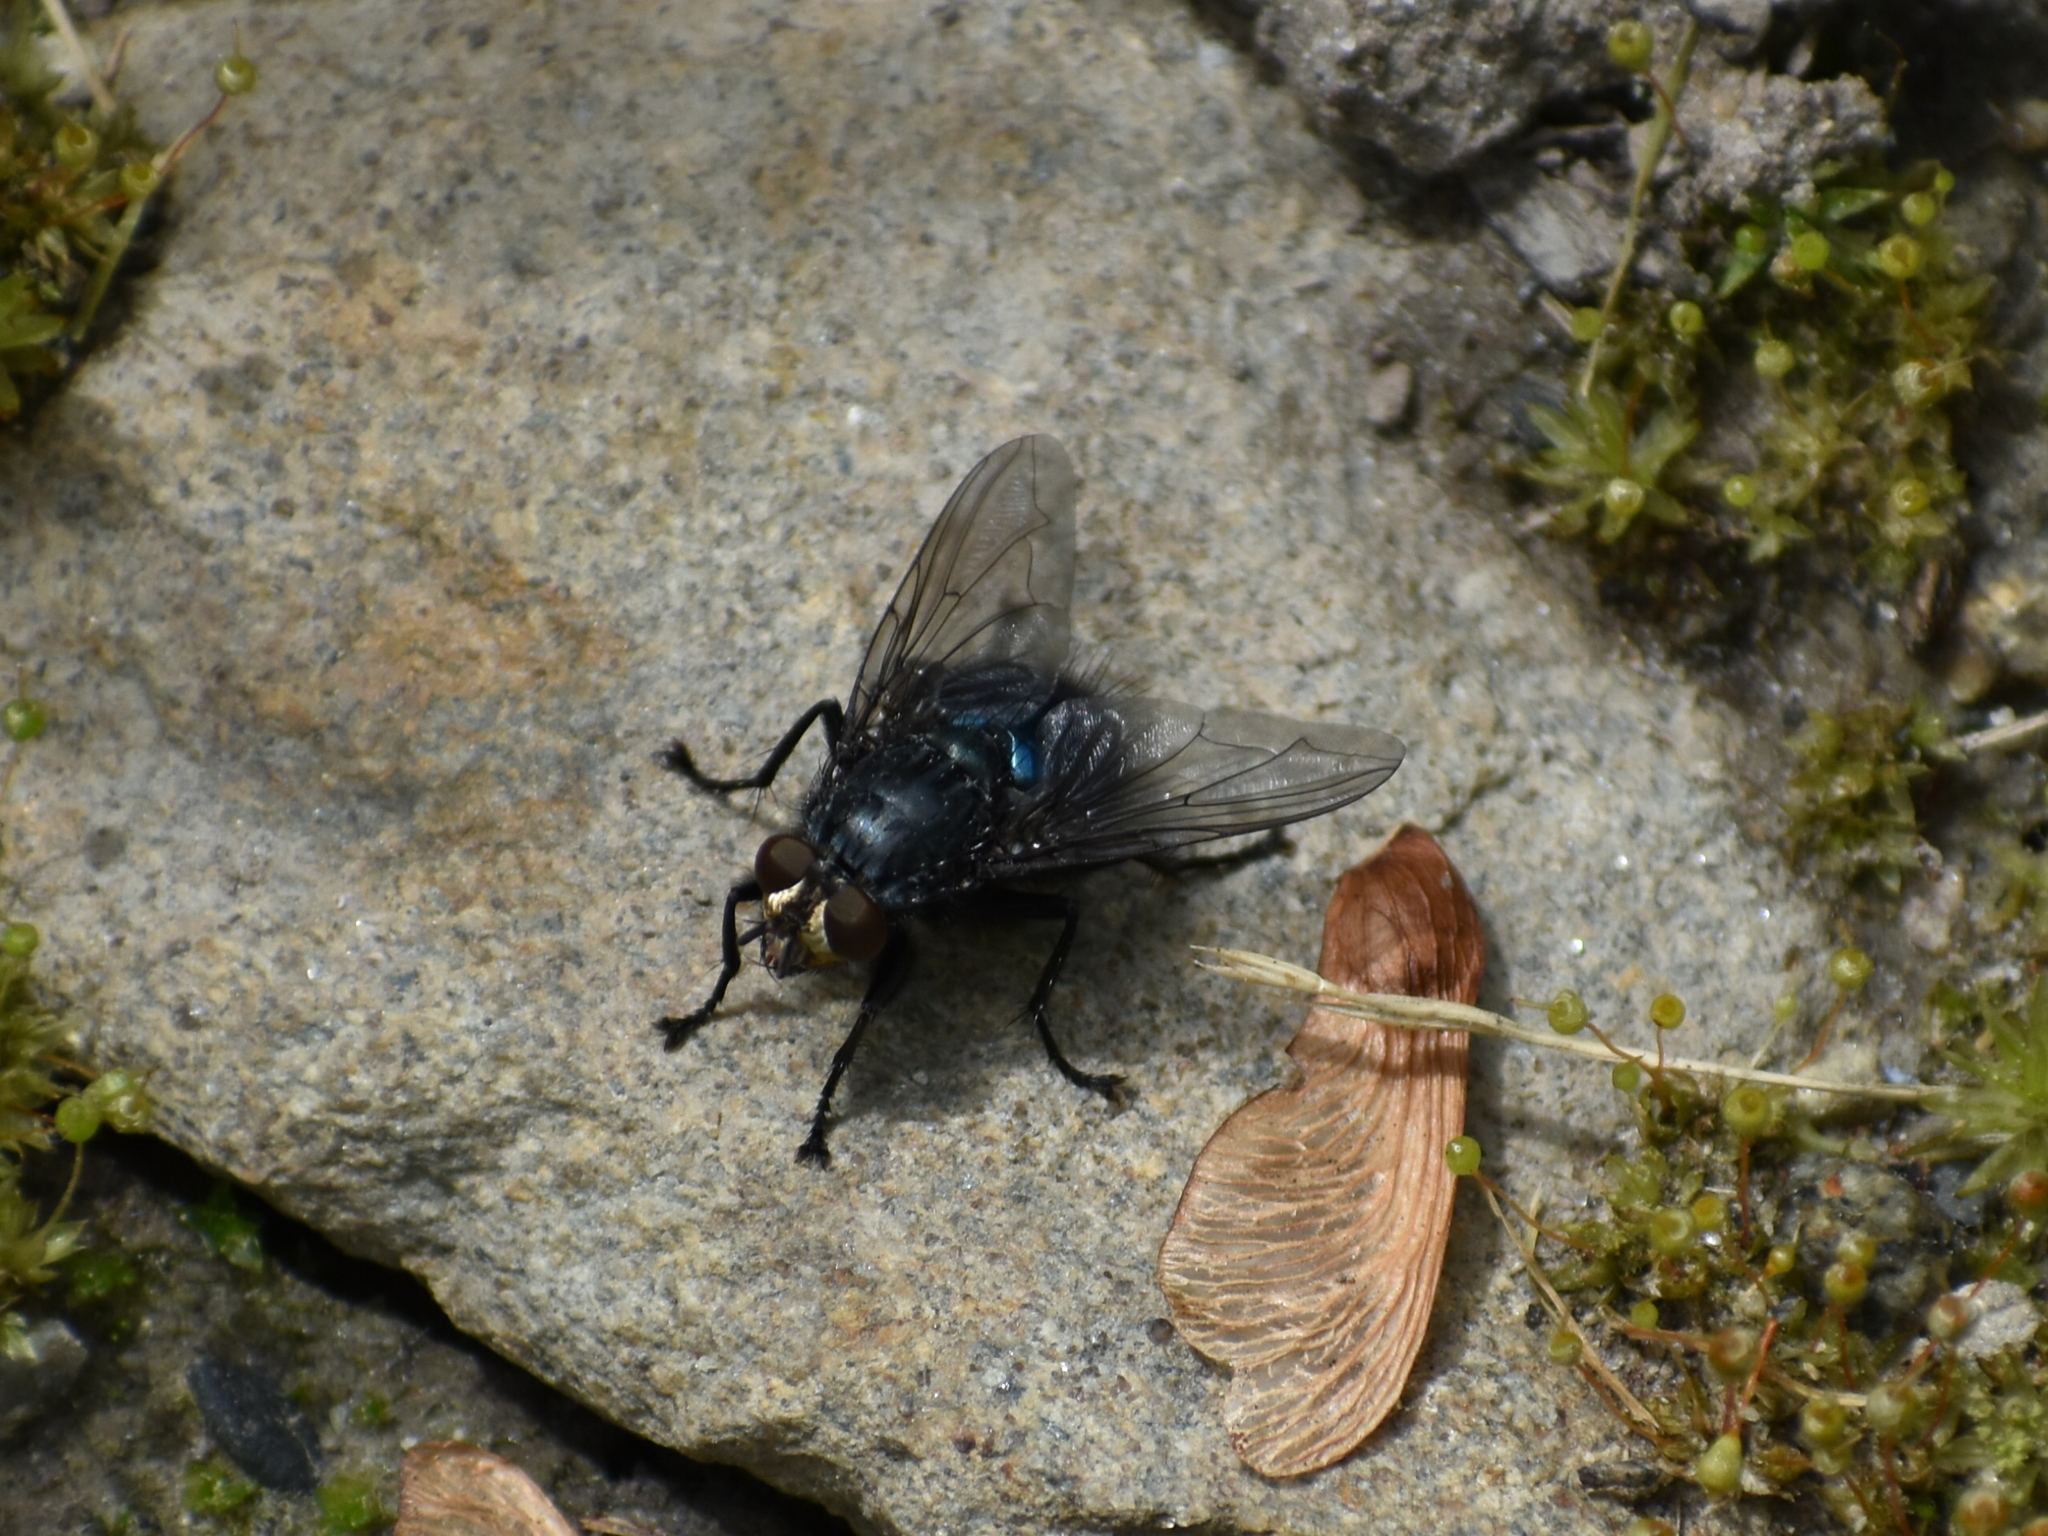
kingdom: Animalia
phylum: Arthropoda
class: Insecta
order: Diptera
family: Calliphoridae
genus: Cynomya
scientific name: Cynomya cadaverina
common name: Shiny blue bottle fly
